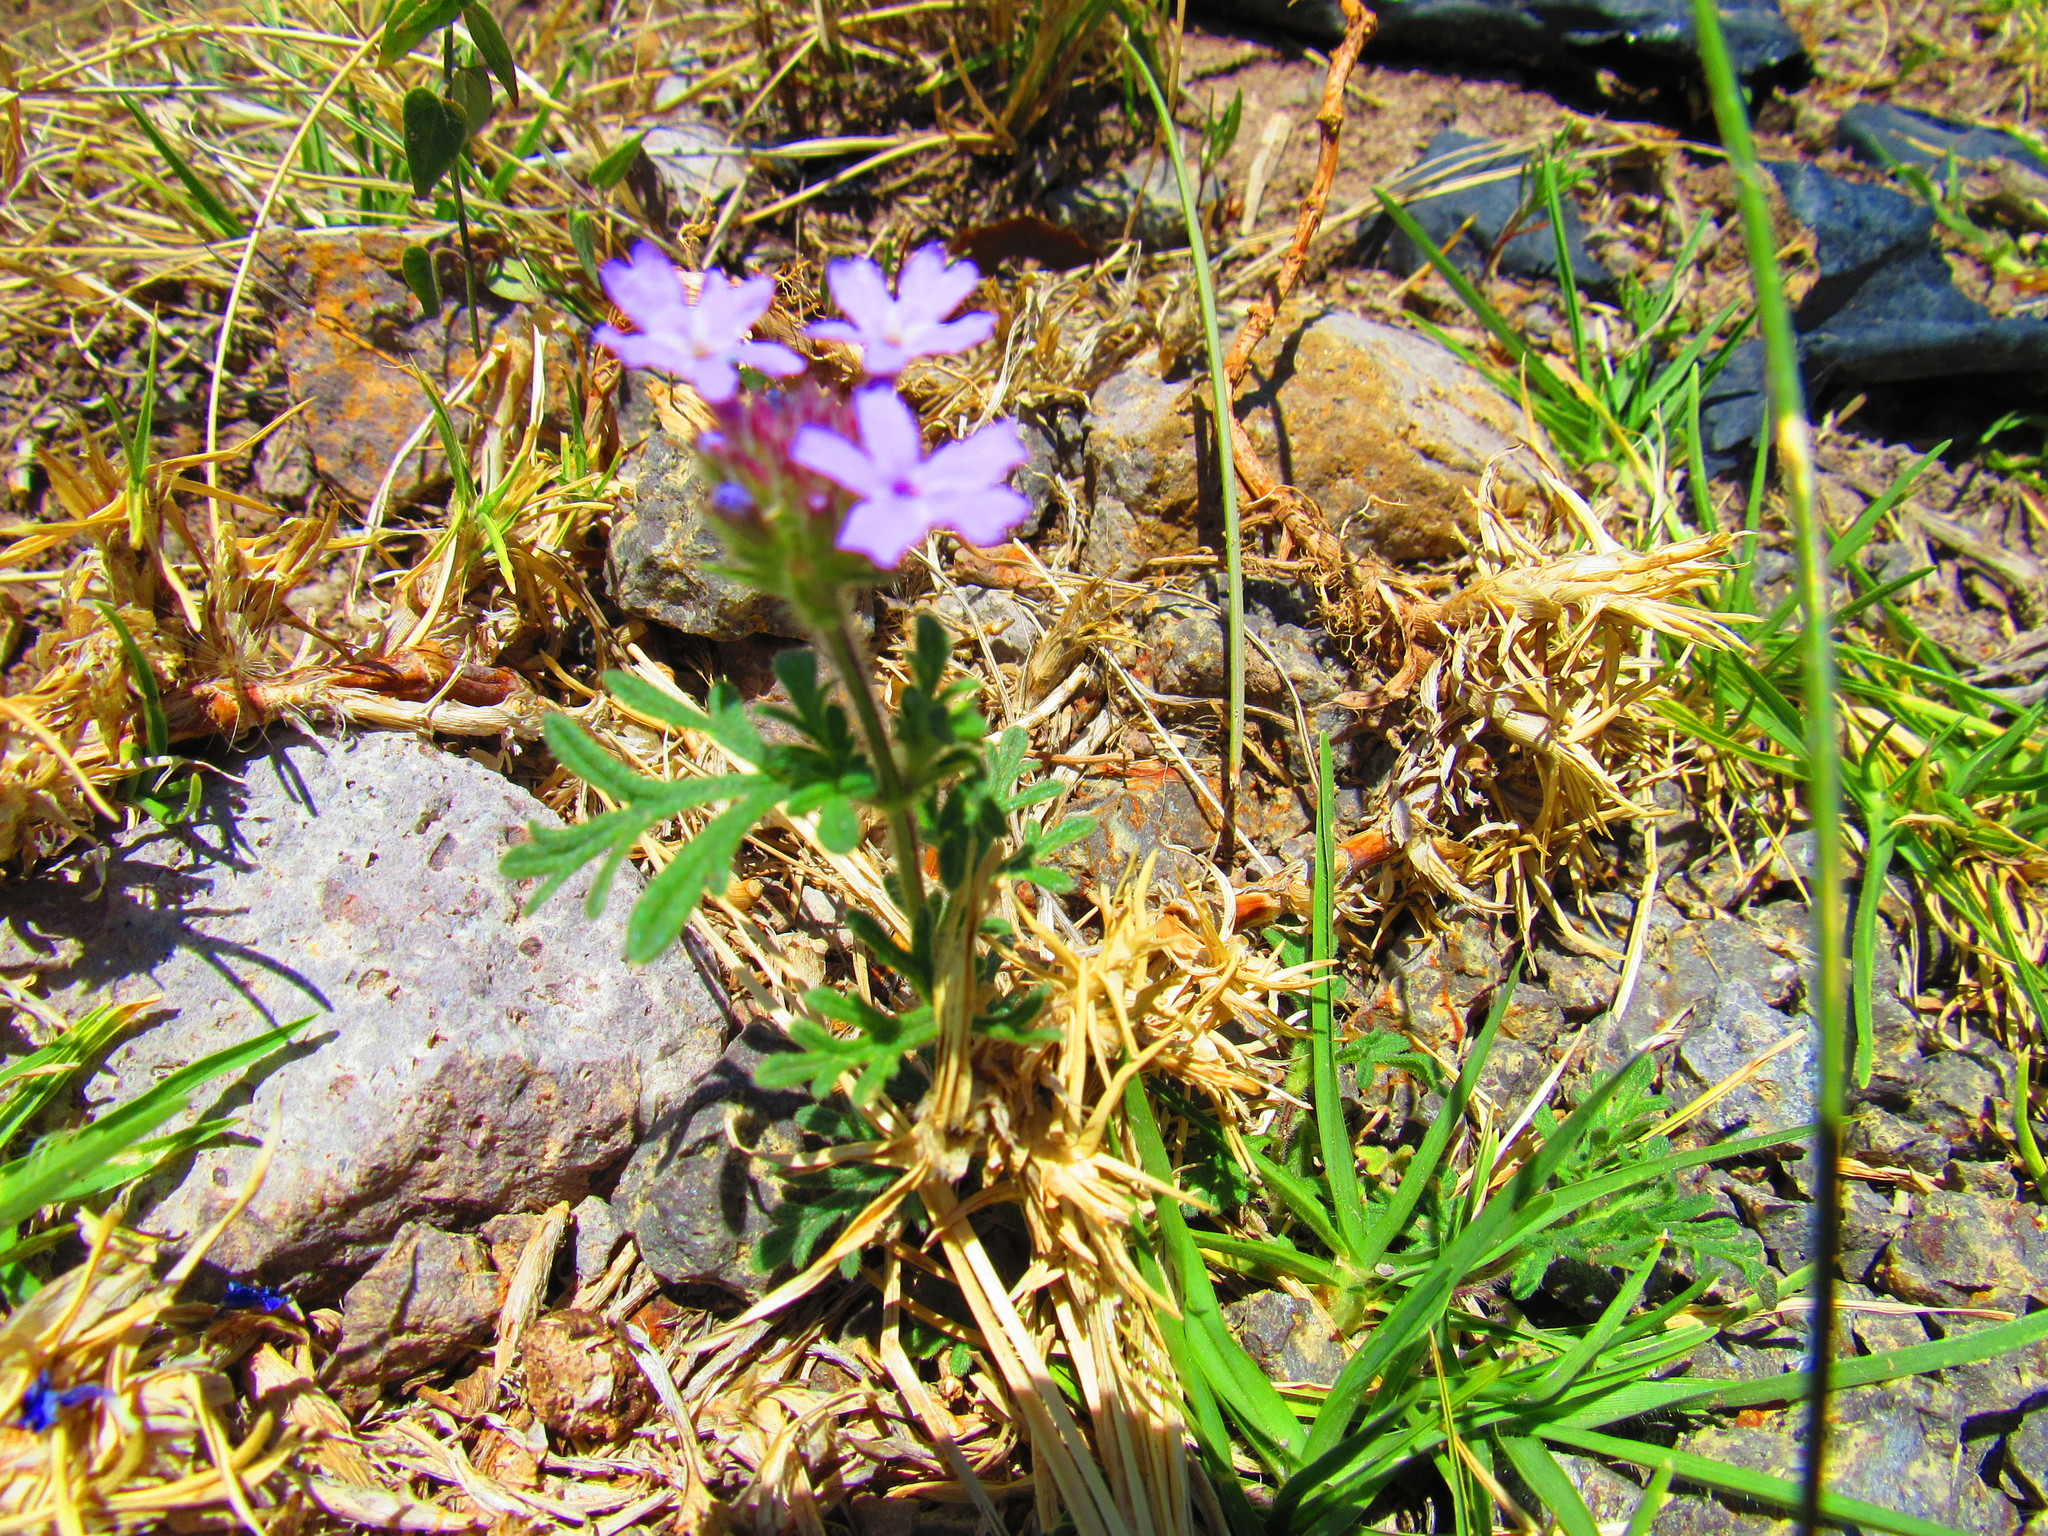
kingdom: Plantae
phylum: Tracheophyta
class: Magnoliopsida
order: Lamiales
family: Verbenaceae
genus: Verbena
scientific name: Verbena bipinnatifida
